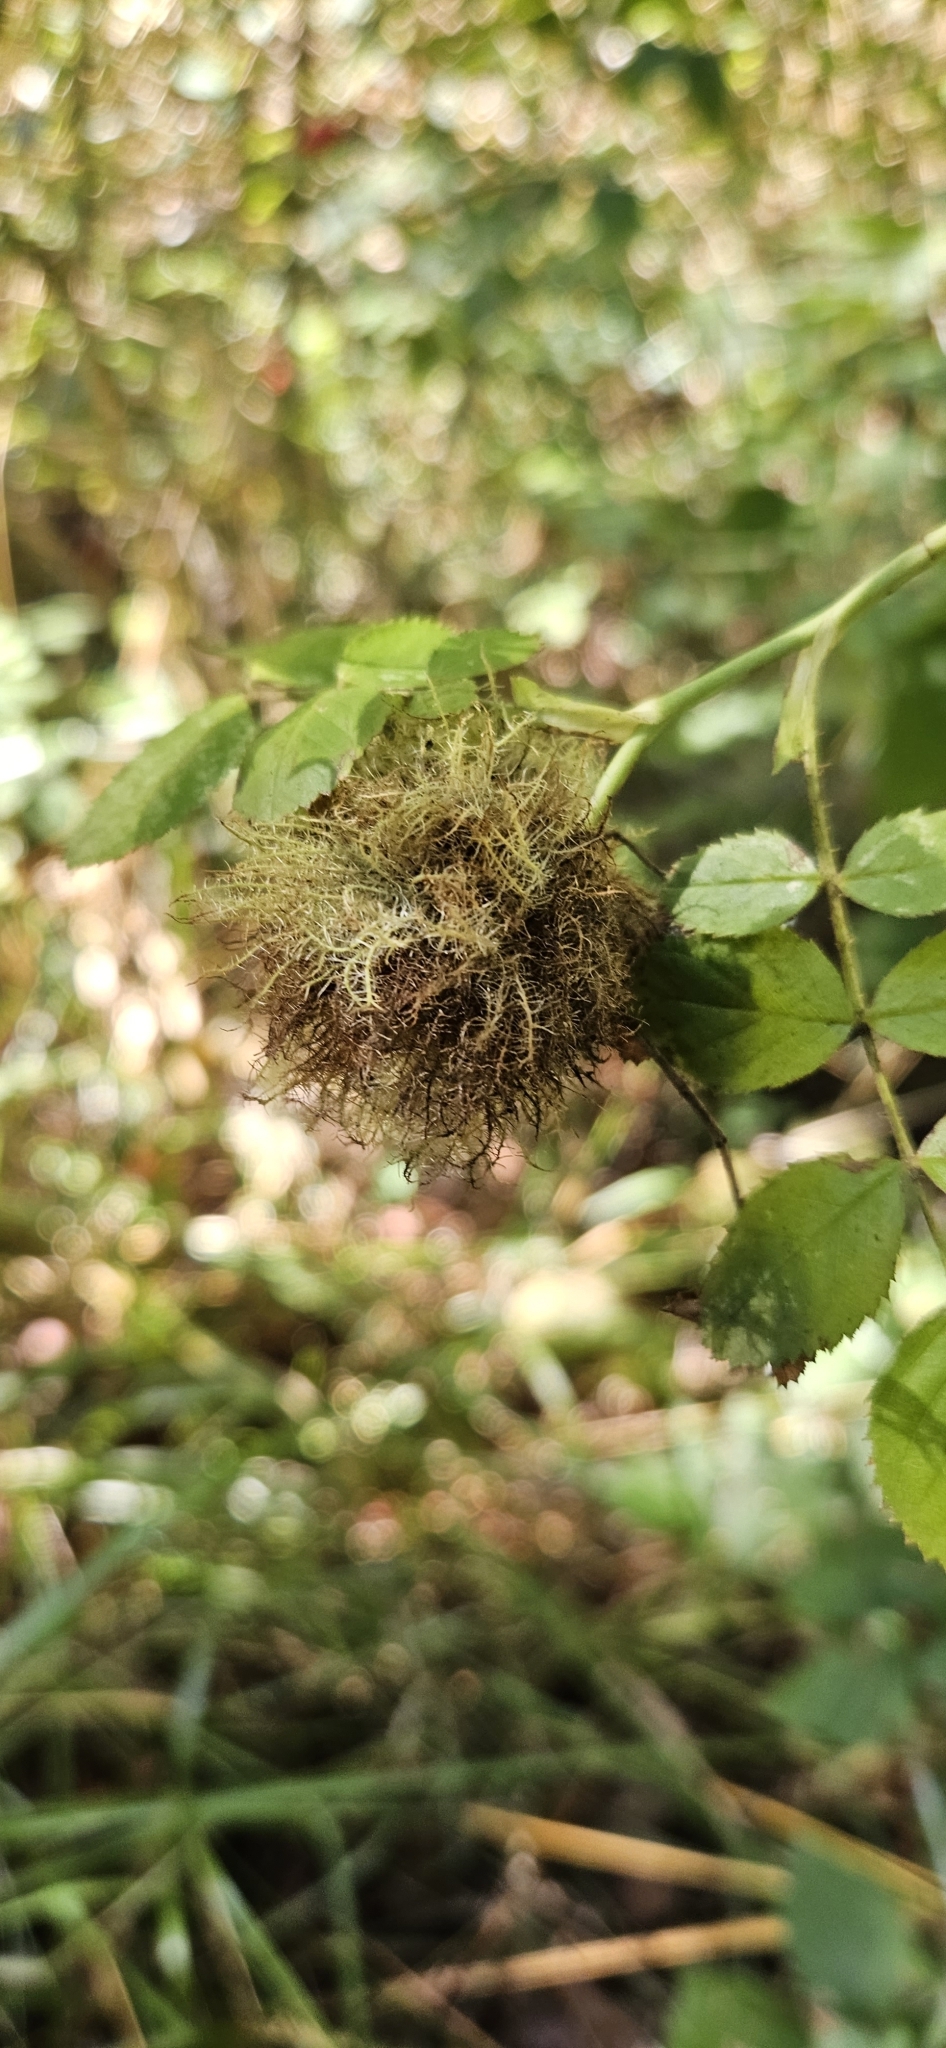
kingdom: Animalia
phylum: Arthropoda
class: Insecta
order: Hymenoptera
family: Cynipidae
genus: Diplolepis
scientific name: Diplolepis rosae
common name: Bedeguar gall
